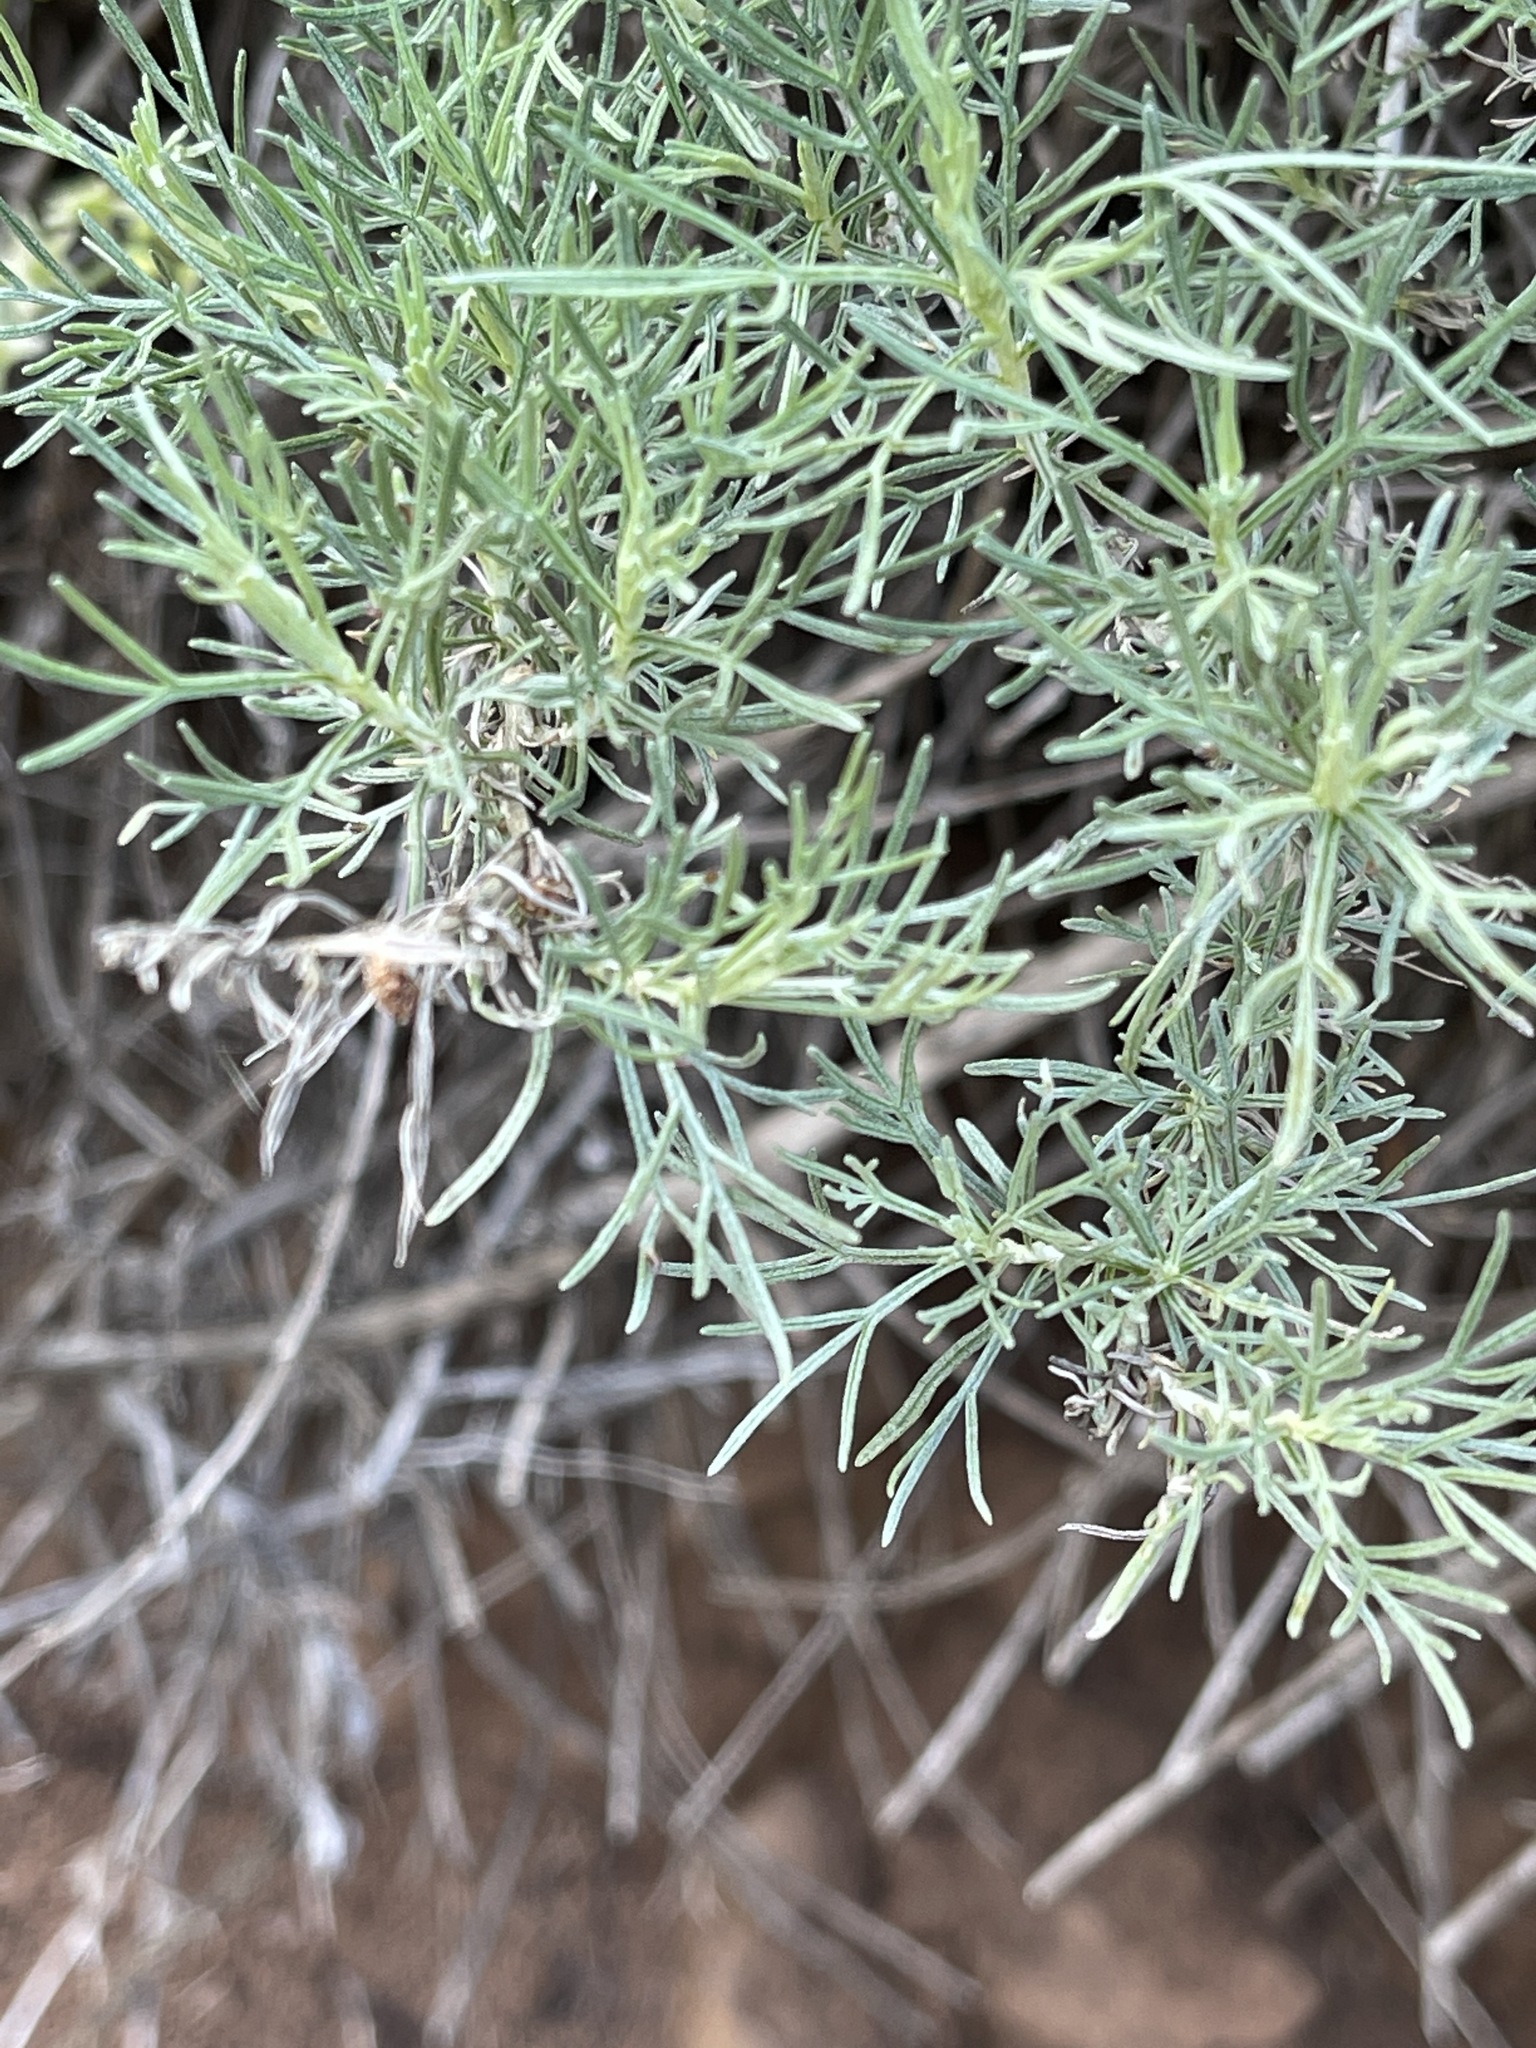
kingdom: Plantae
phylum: Tracheophyta
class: Magnoliopsida
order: Asterales
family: Asteraceae
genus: Artemisia
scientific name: Artemisia californica
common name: California sagebrush
